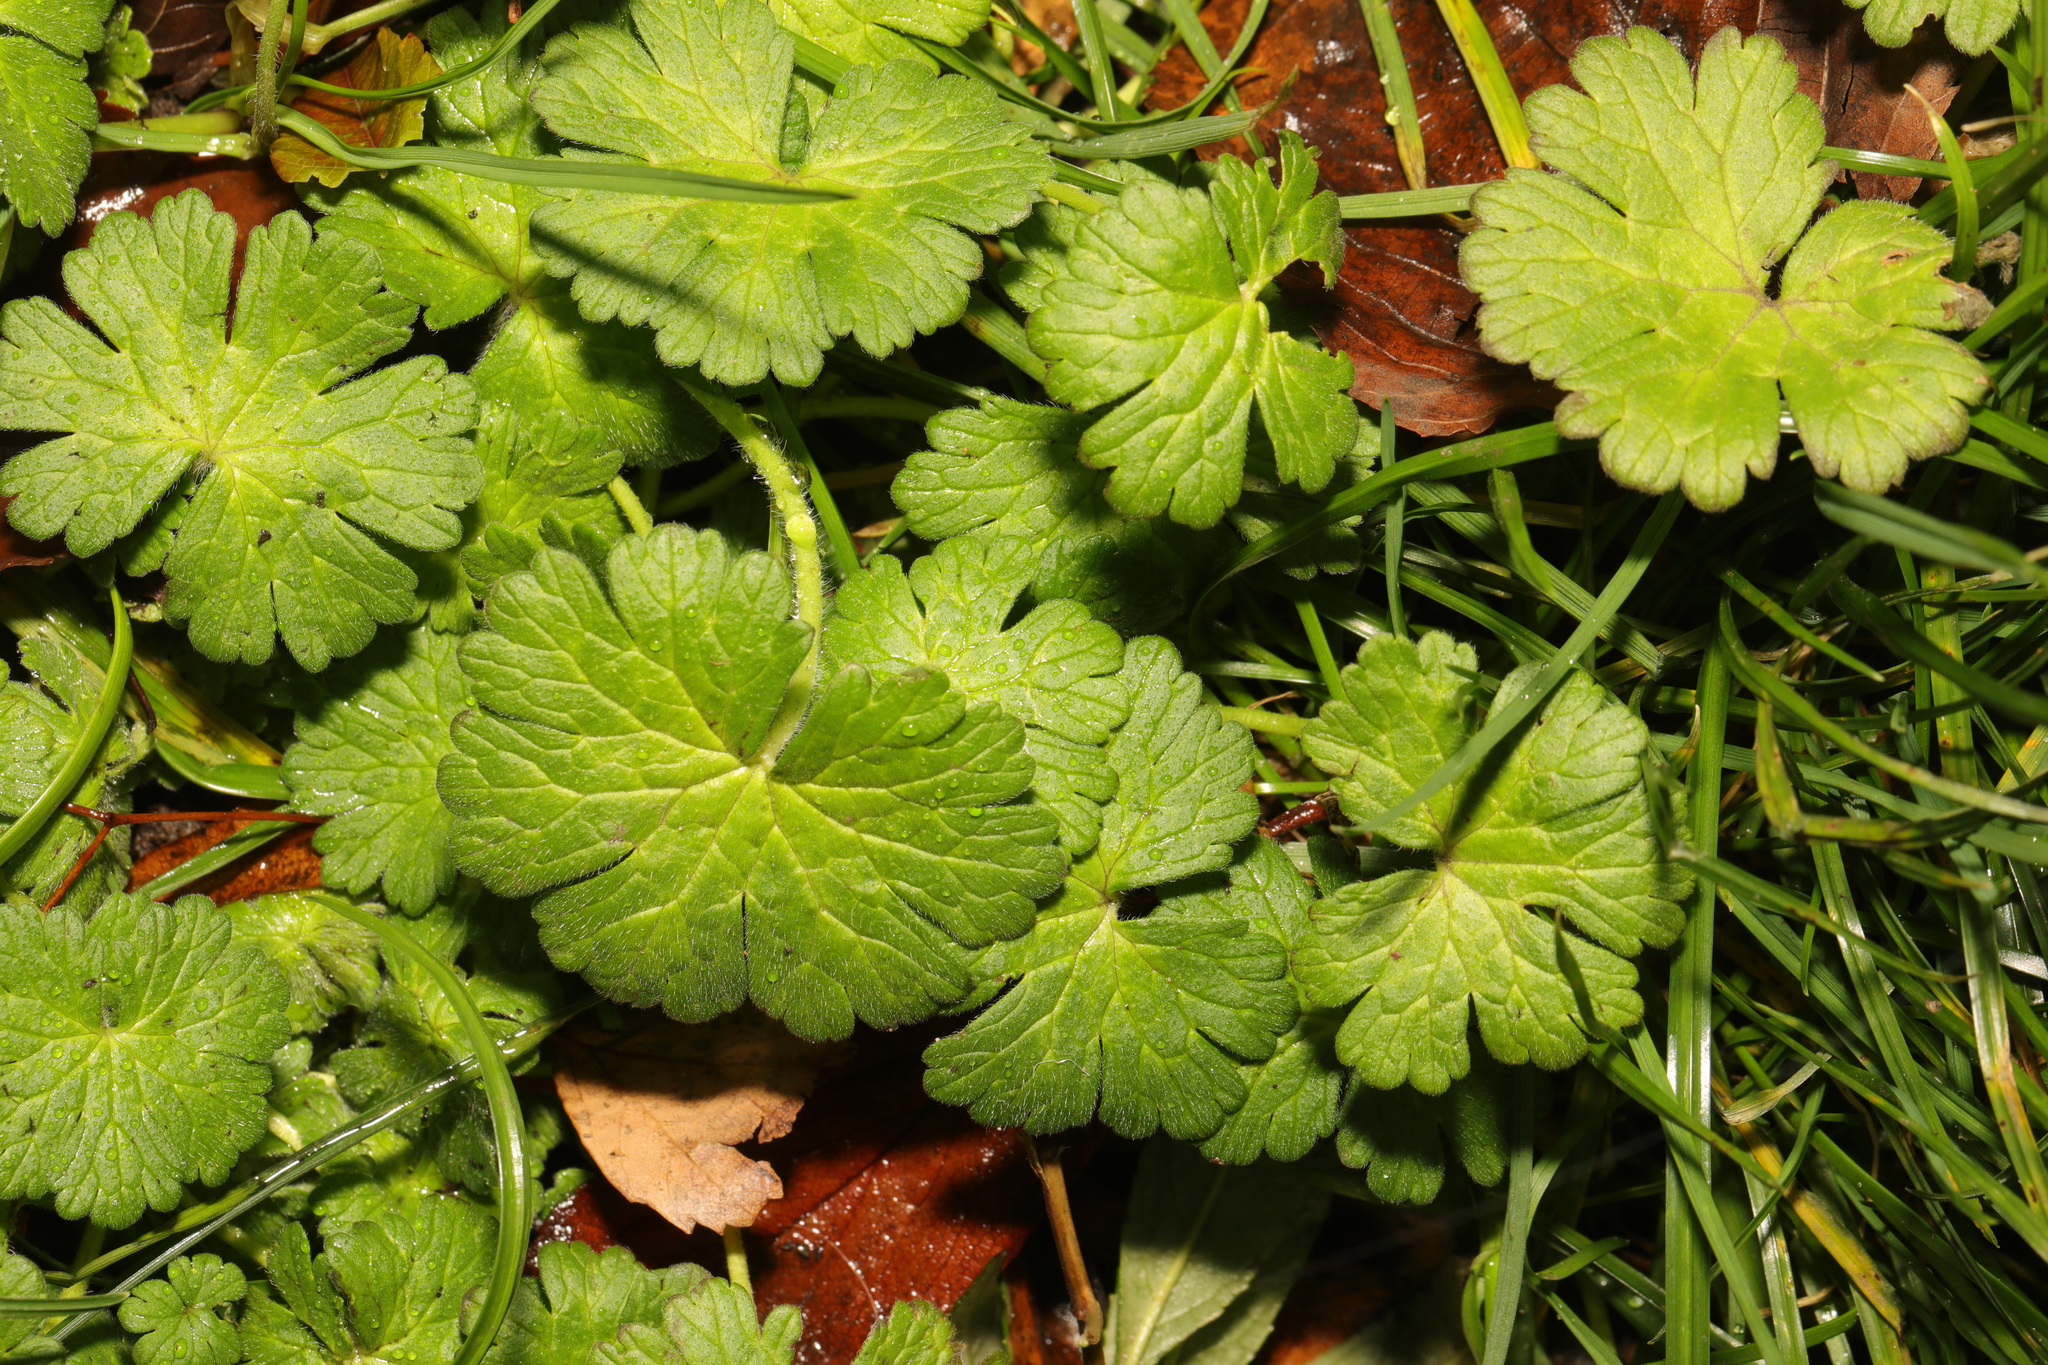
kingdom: Plantae
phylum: Tracheophyta
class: Magnoliopsida
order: Geraniales
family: Geraniaceae
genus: Geranium
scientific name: Geranium molle
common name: Dove's-foot crane's-bill
